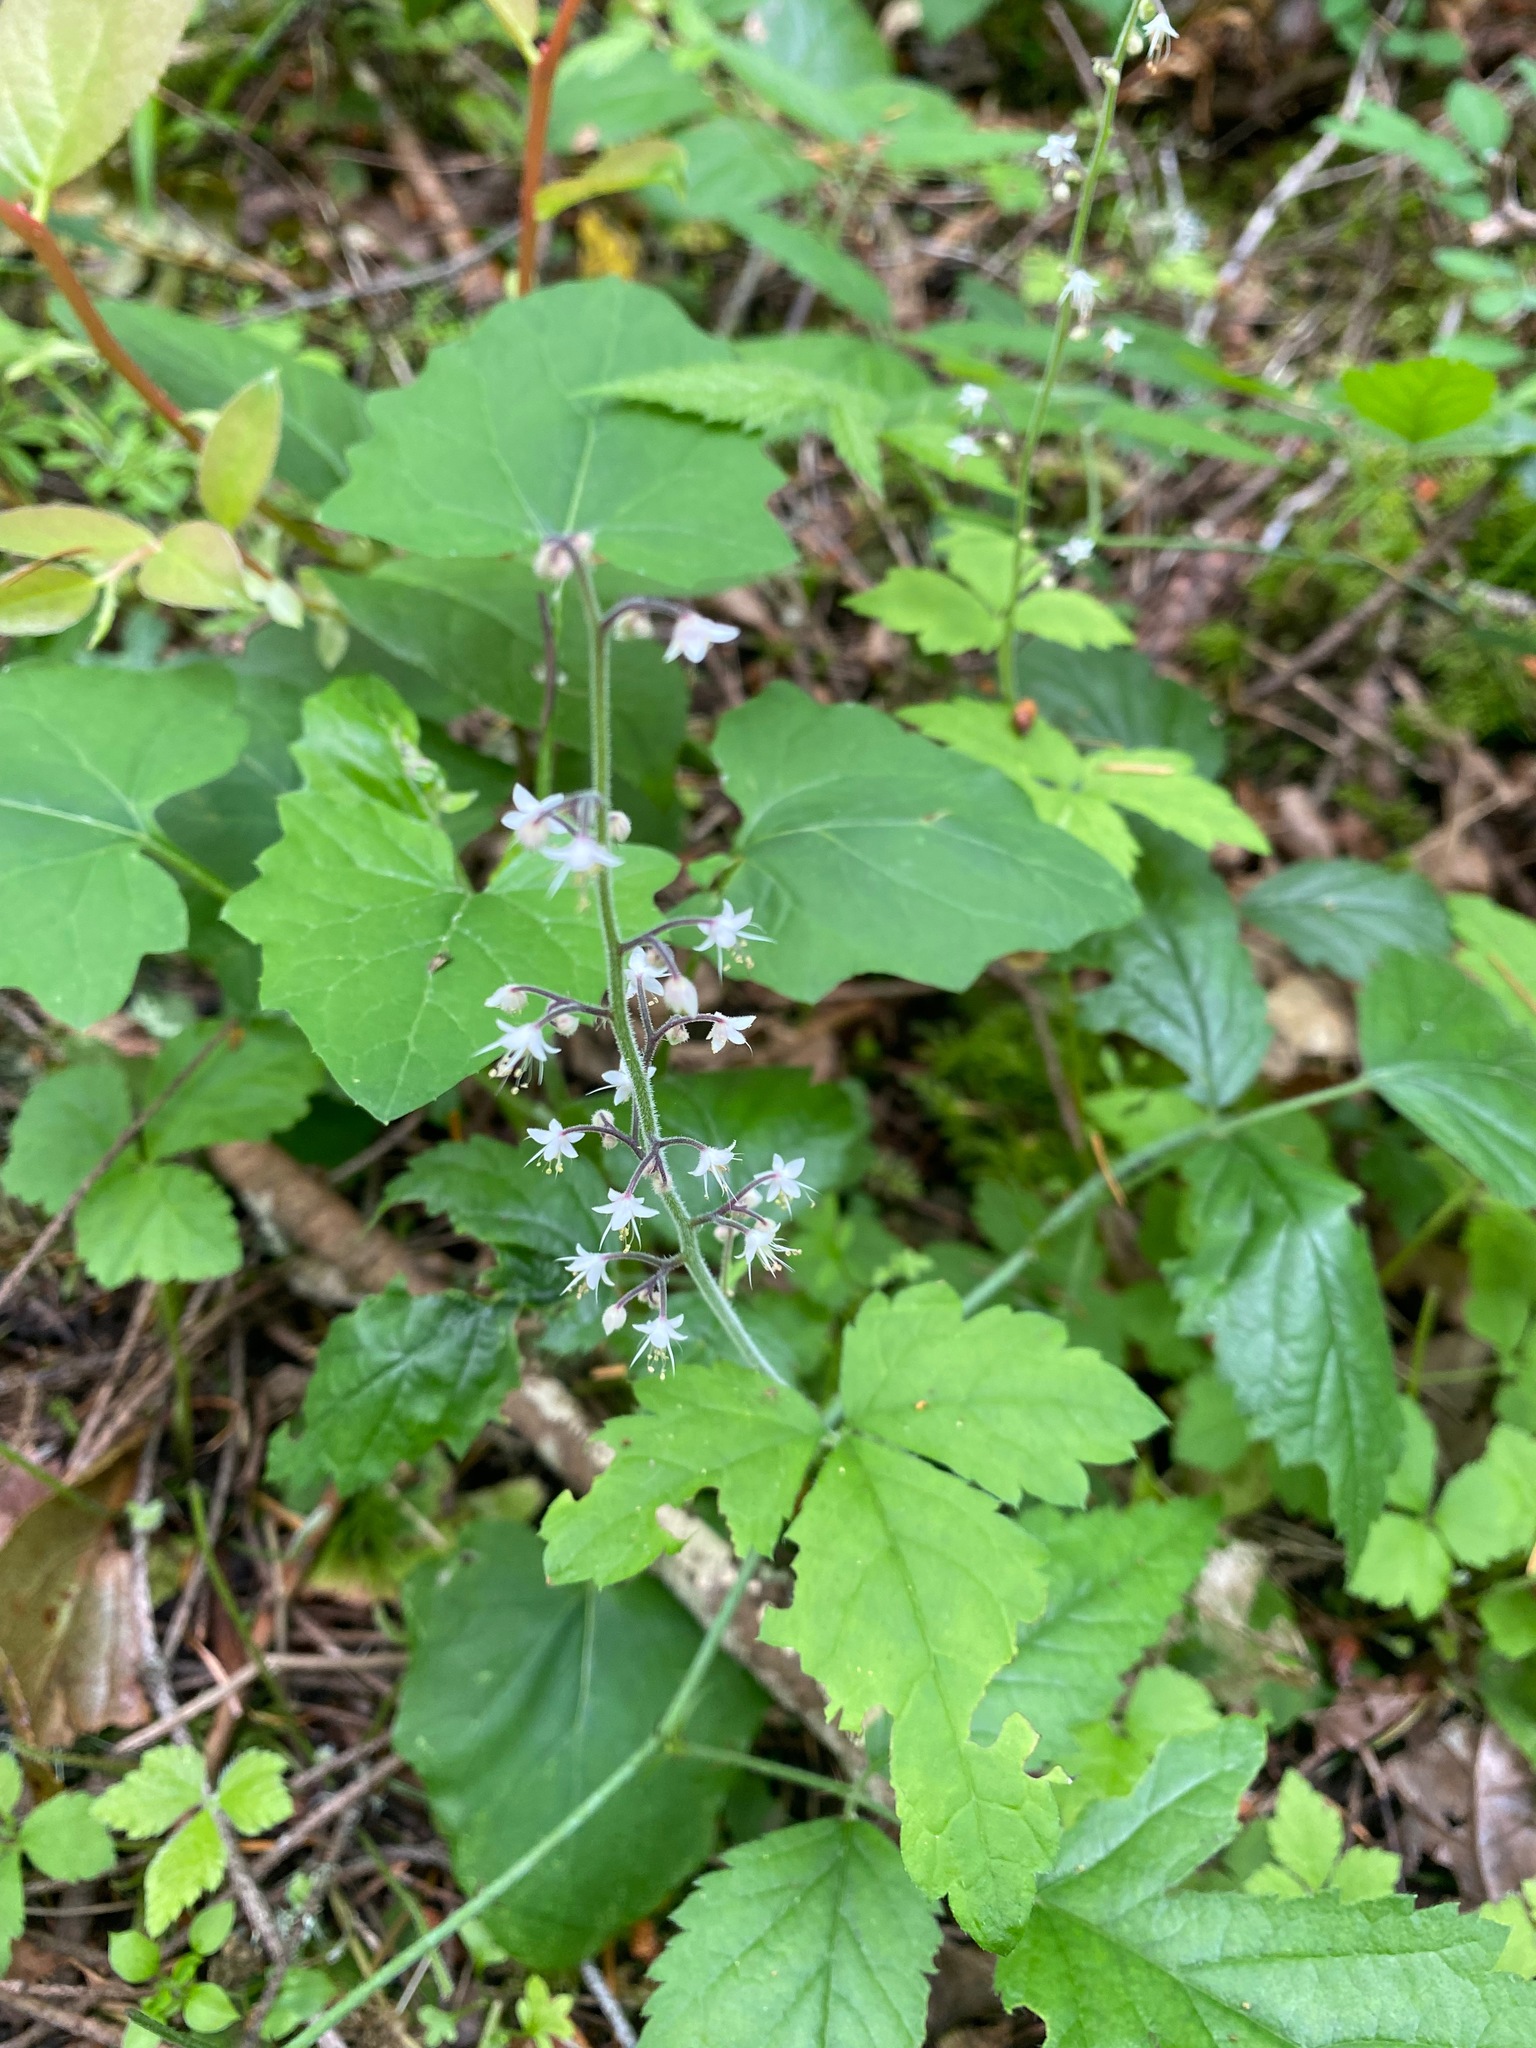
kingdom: Plantae
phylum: Tracheophyta
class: Magnoliopsida
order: Saxifragales
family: Saxifragaceae
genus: Tiarella
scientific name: Tiarella trifoliata
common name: Sugar-scoop
